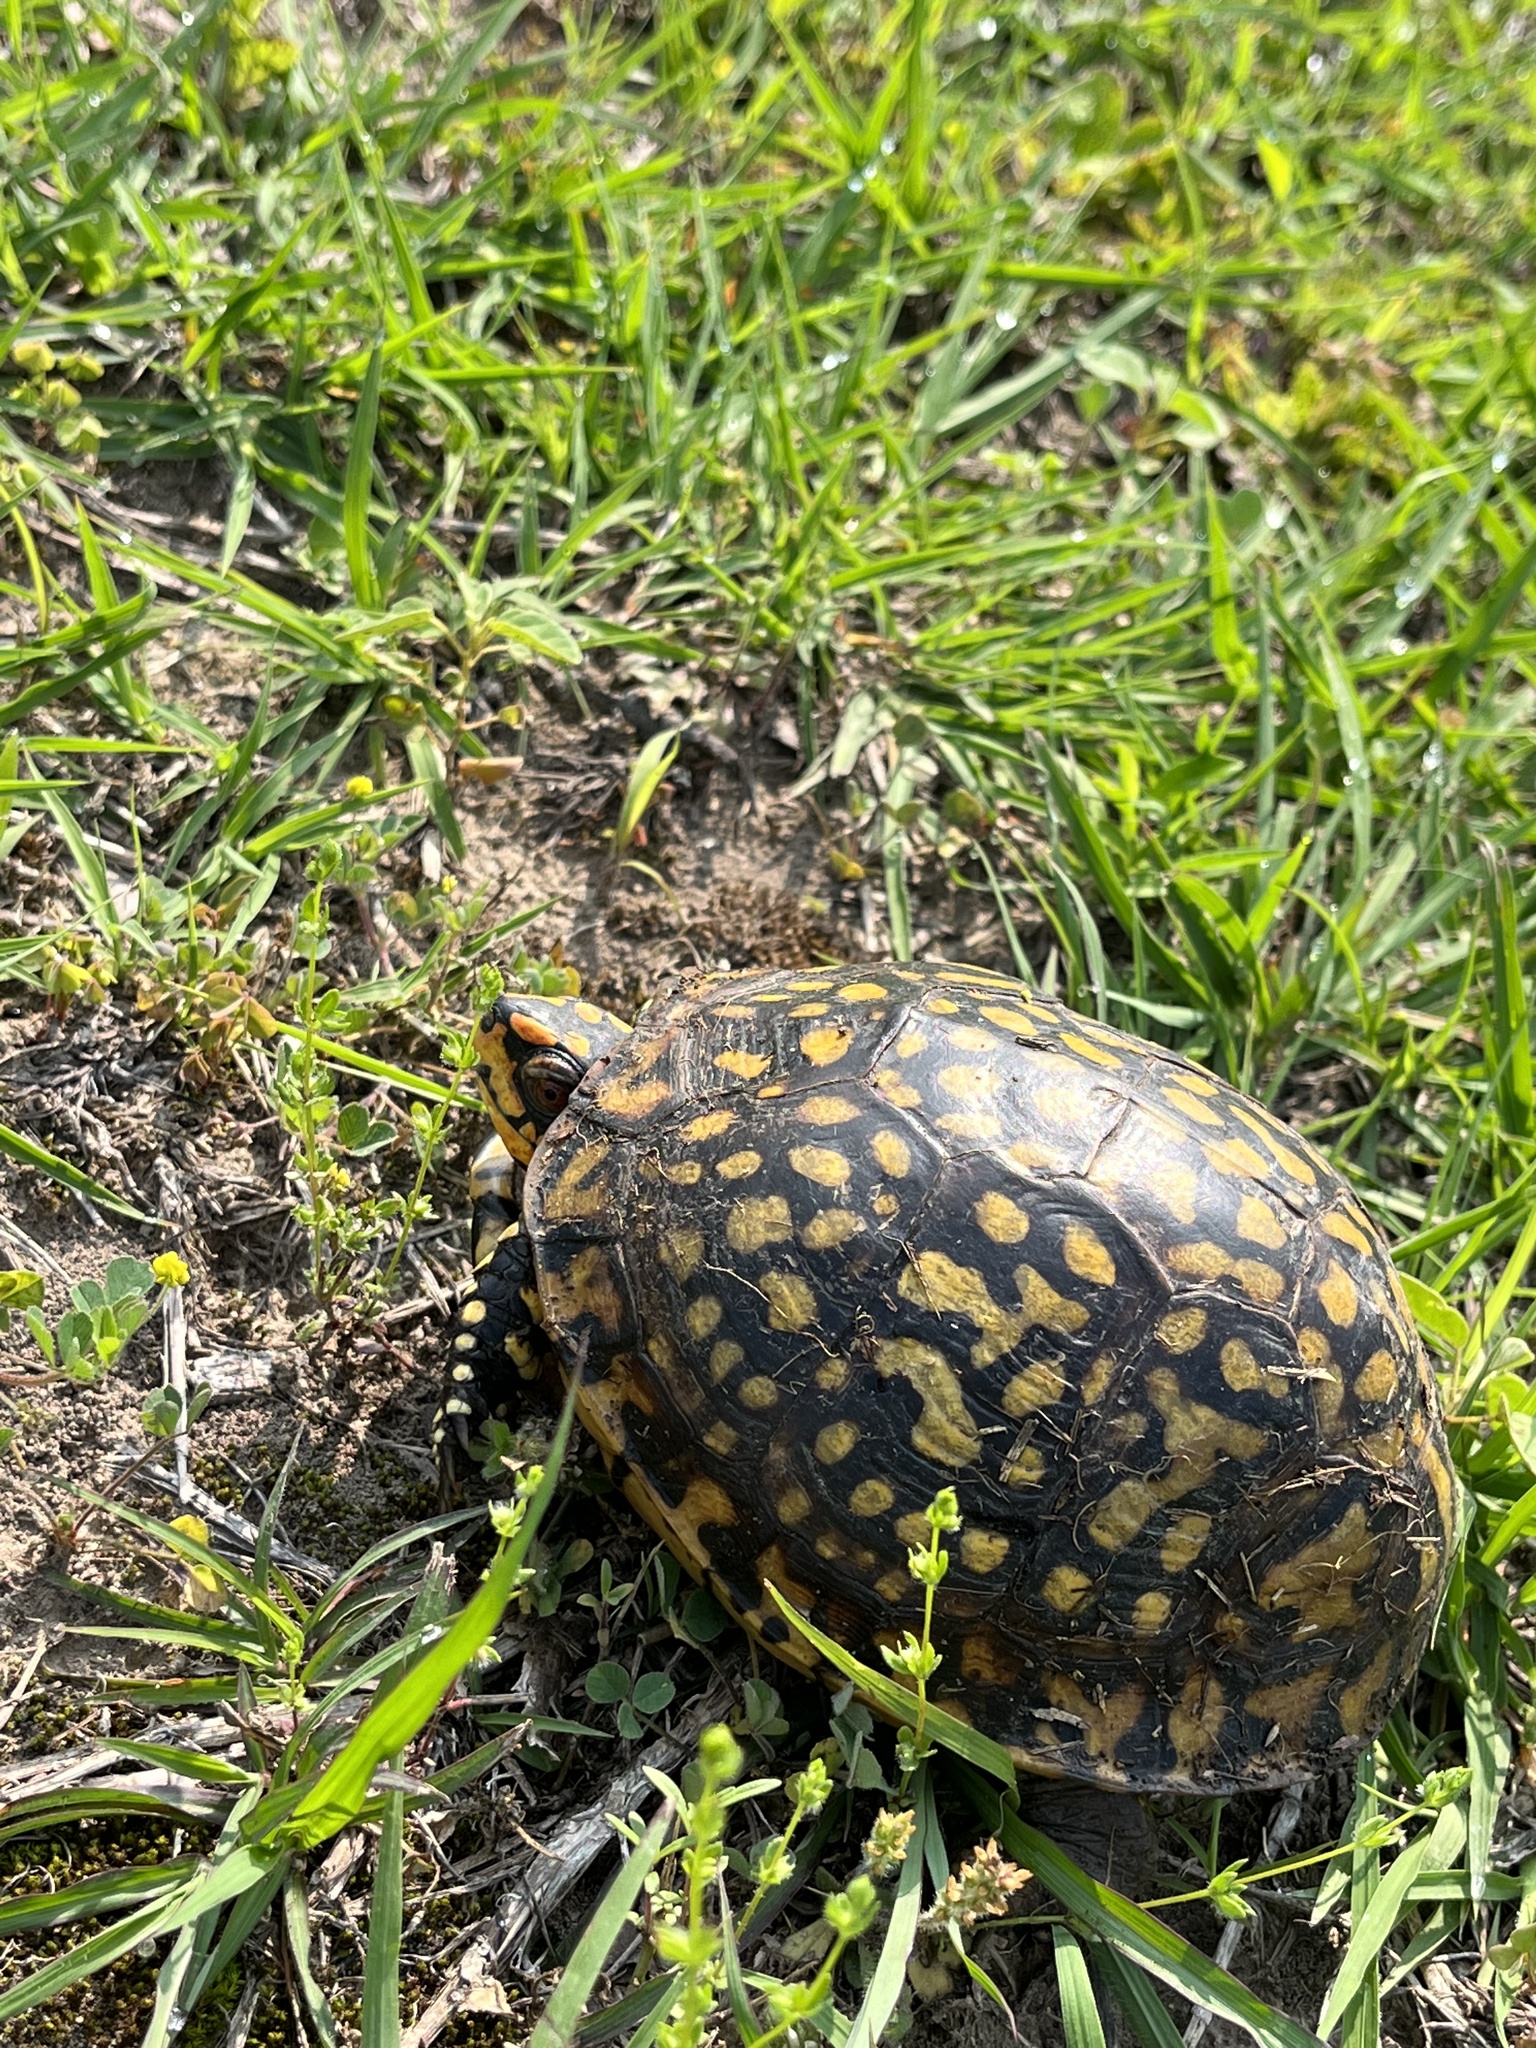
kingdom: Animalia
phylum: Chordata
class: Testudines
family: Emydidae
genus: Terrapene
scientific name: Terrapene carolina
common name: Common box turtle
